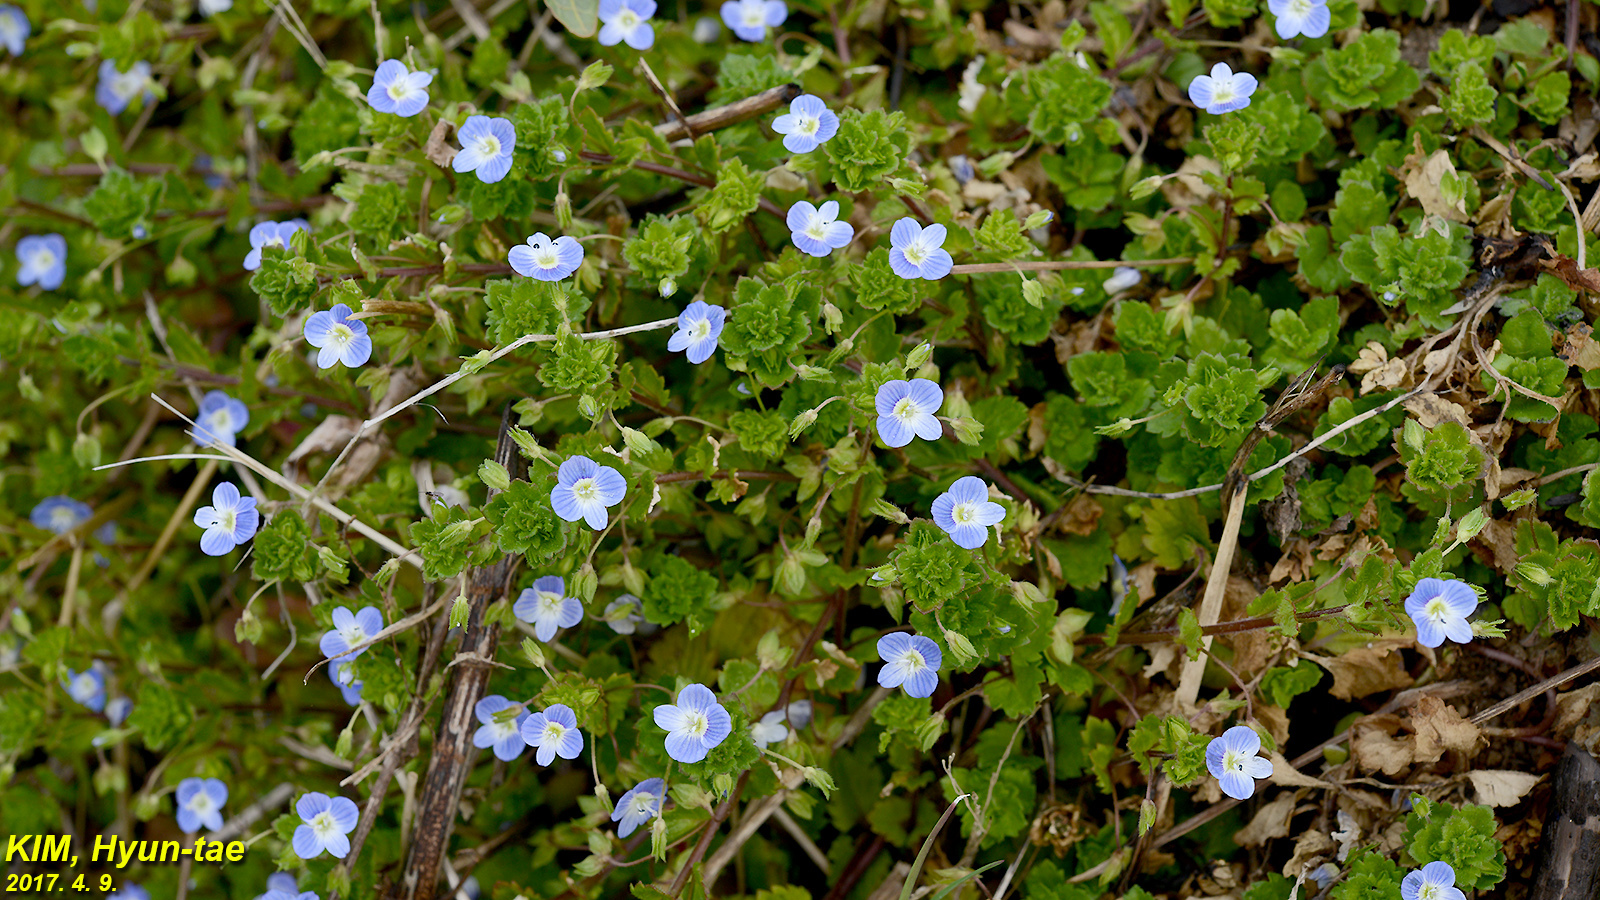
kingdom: Plantae
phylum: Tracheophyta
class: Magnoliopsida
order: Lamiales
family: Plantaginaceae
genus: Veronica
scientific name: Veronica persica
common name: Common field-speedwell
